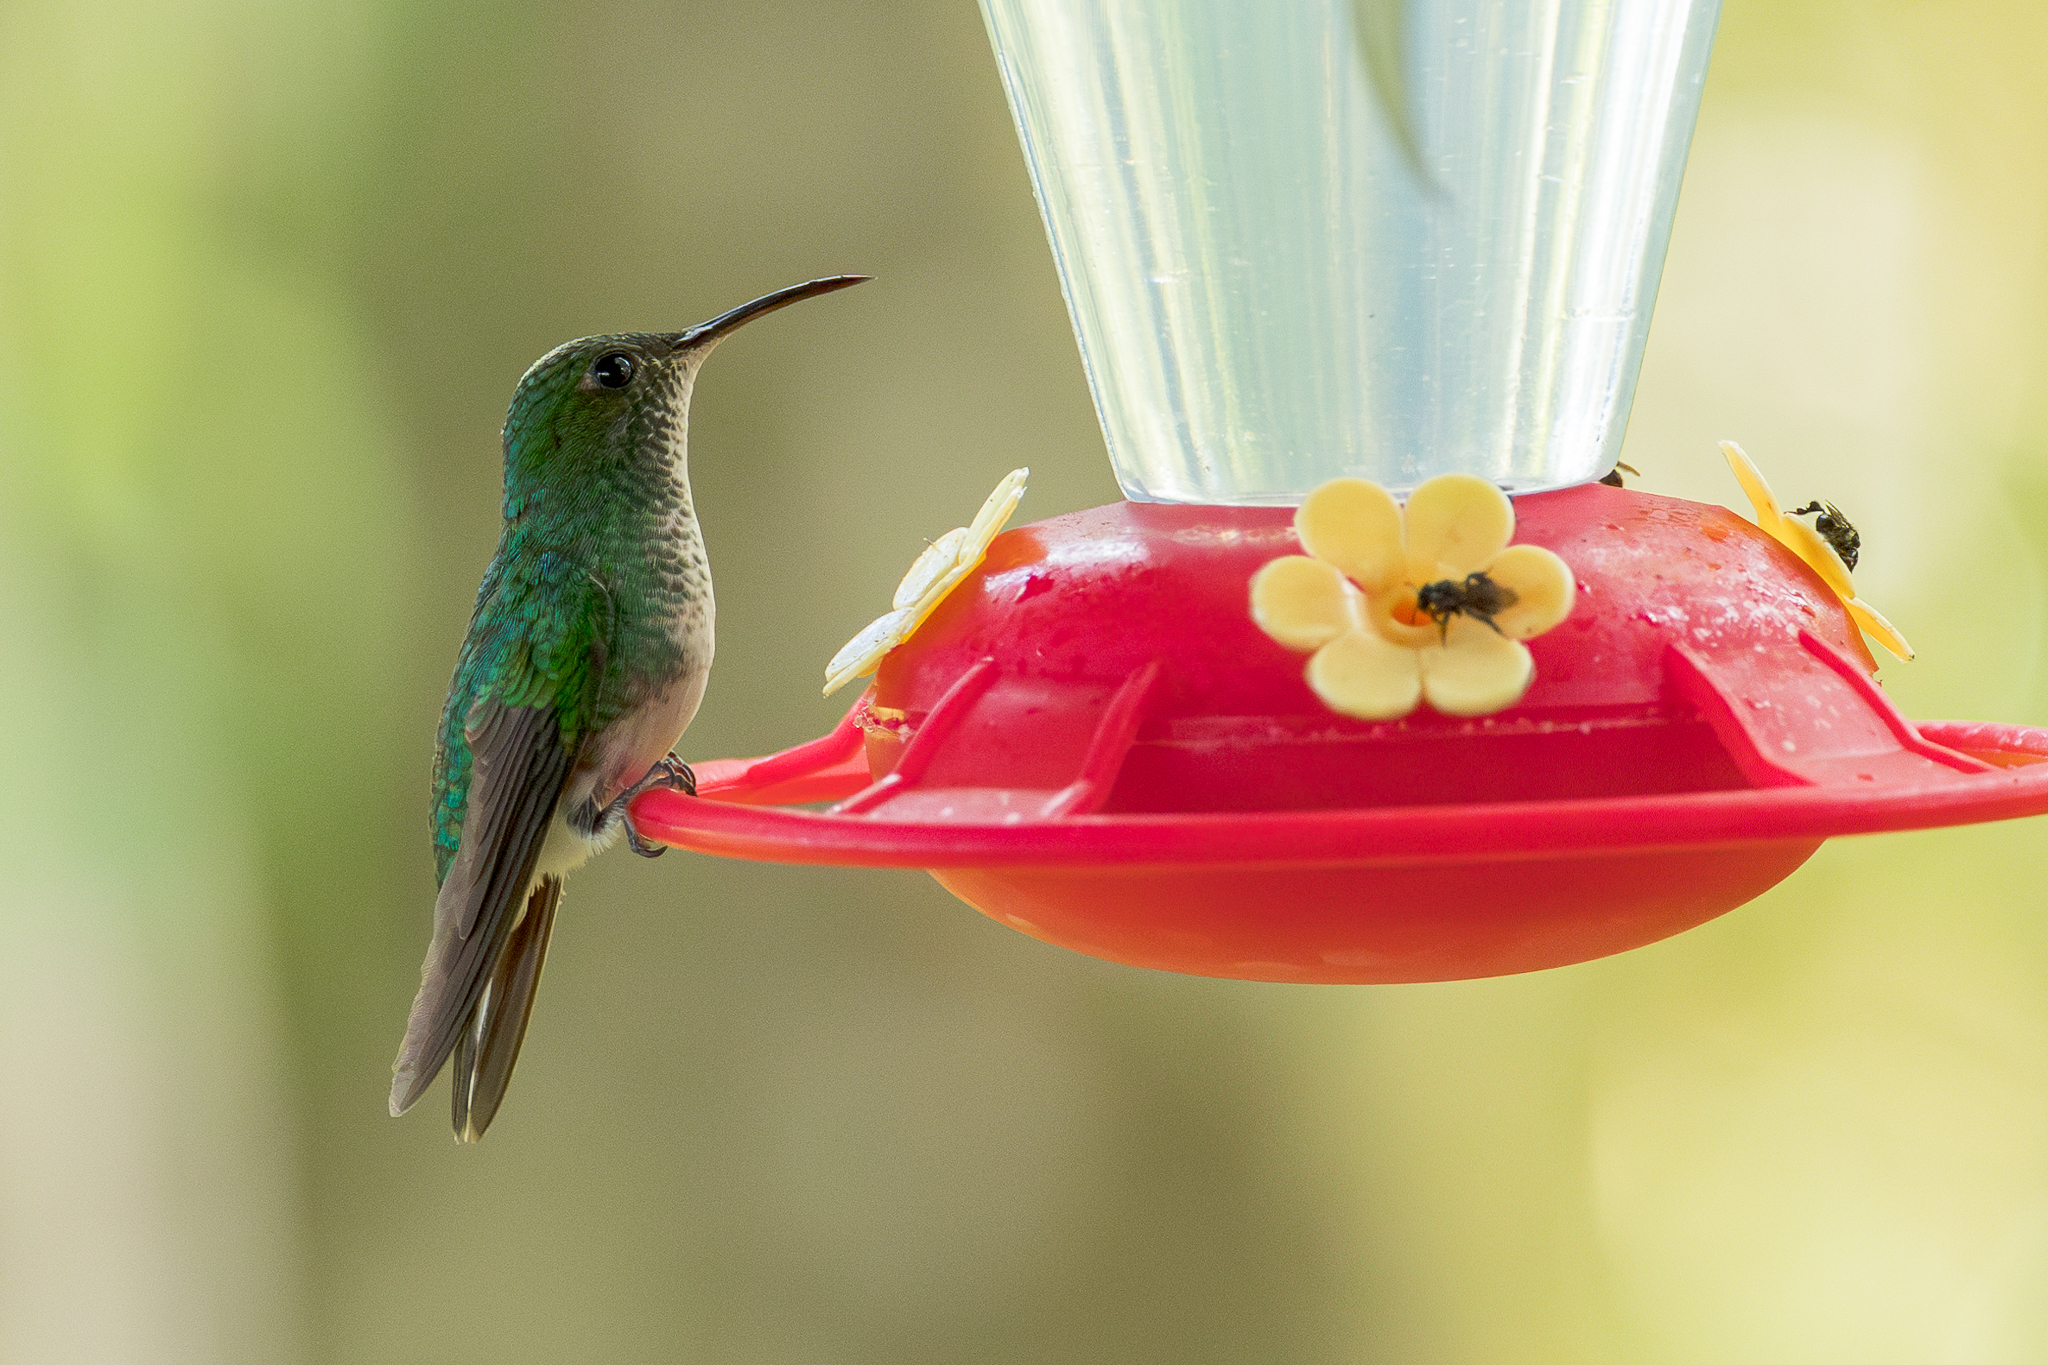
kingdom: Animalia
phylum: Chordata
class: Aves
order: Apodiformes
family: Trochilidae
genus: Microchera
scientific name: Microchera cupreiceps
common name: Coppery-headed emerald
